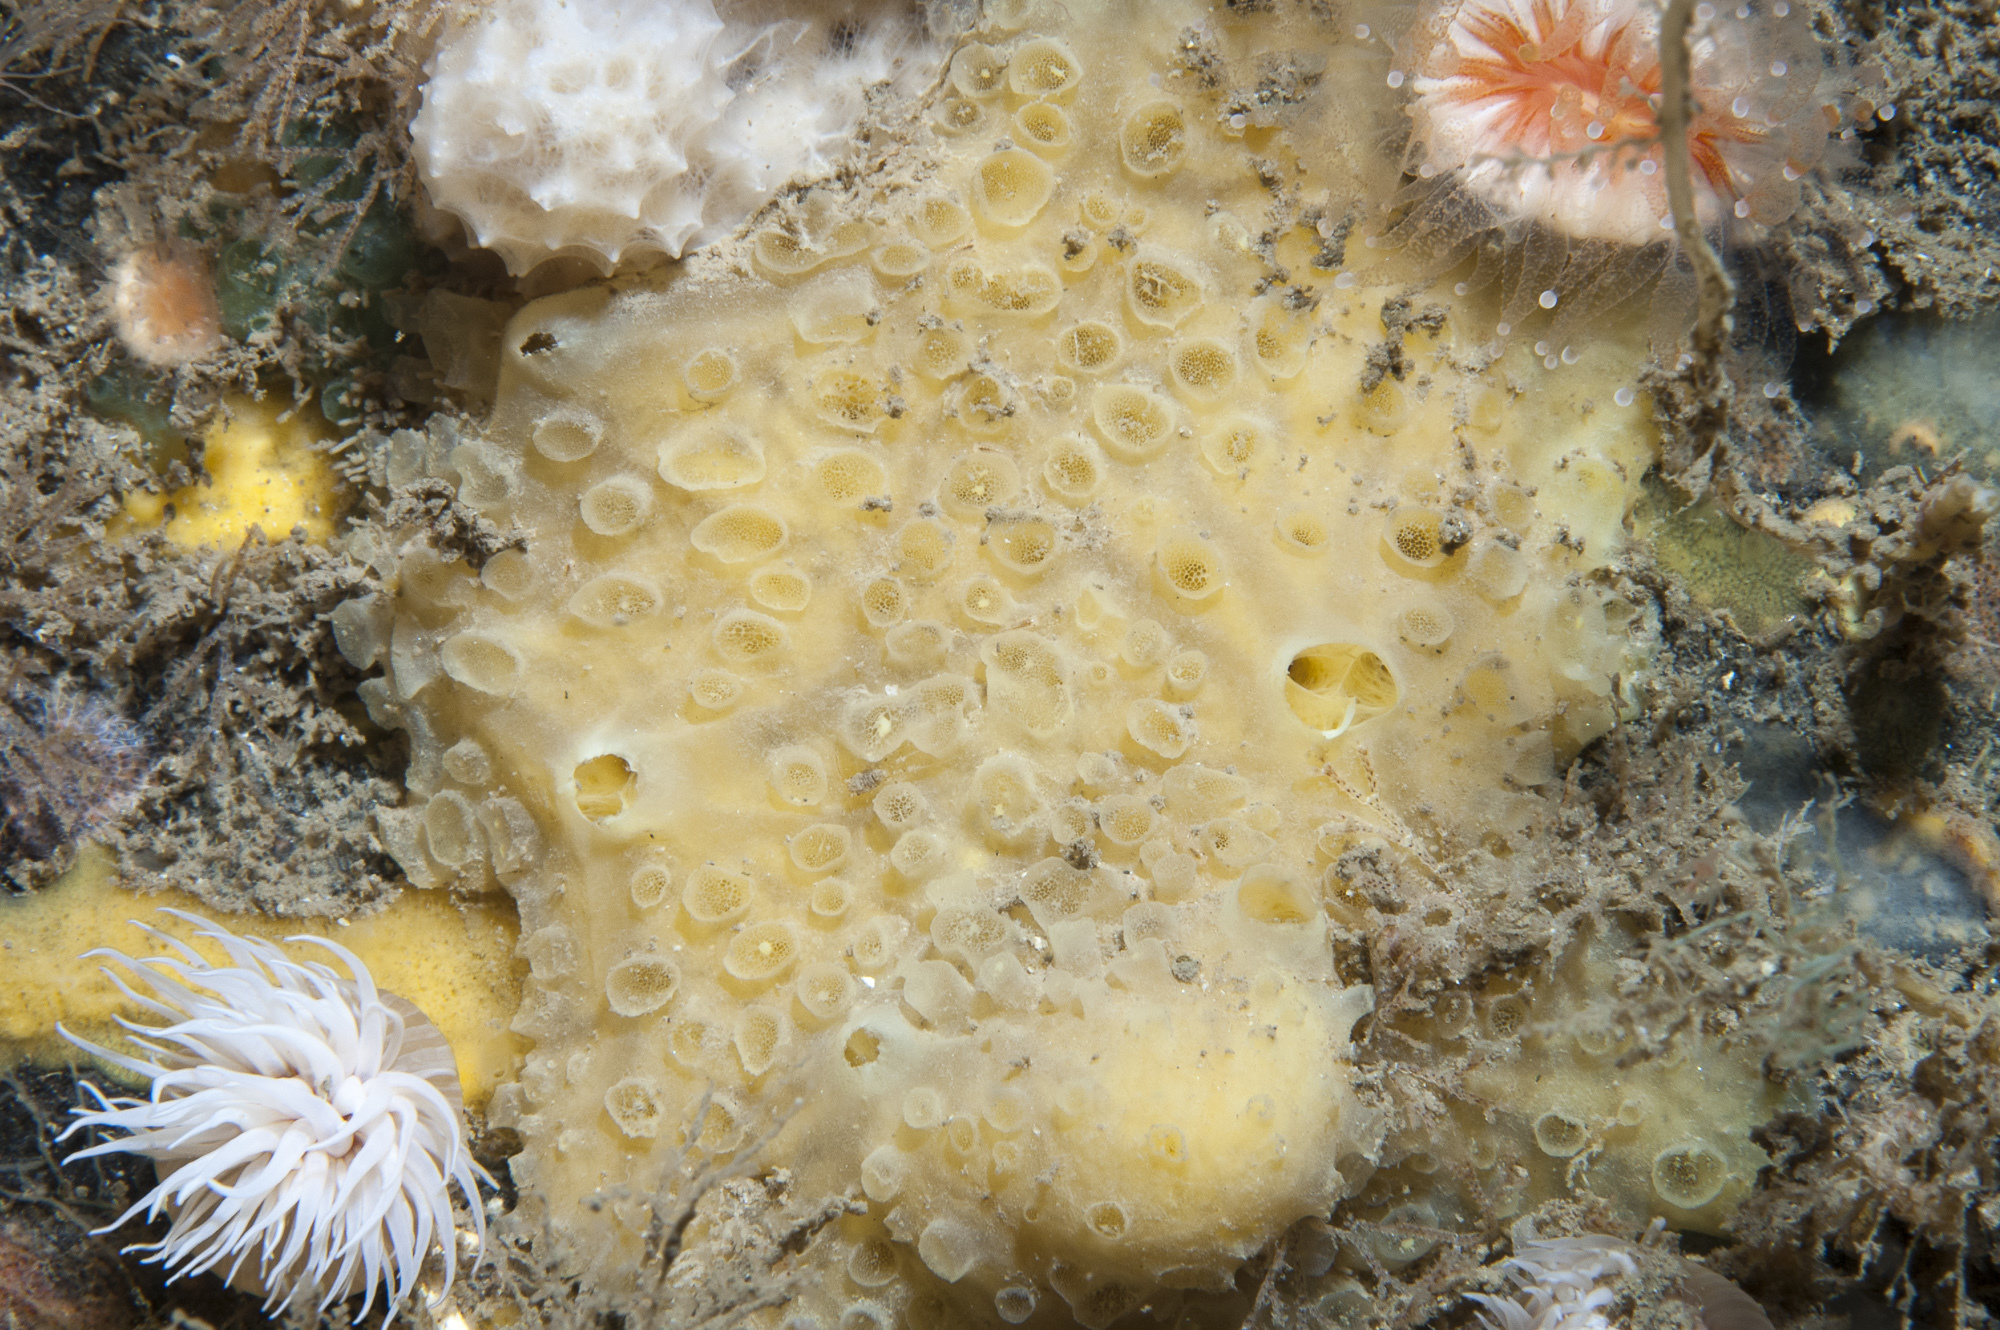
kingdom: Animalia
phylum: Porifera
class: Demospongiae
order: Poecilosclerida
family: Coelosphaeridae
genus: Lissodendoryx
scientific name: Lissodendoryx jenjonesae
